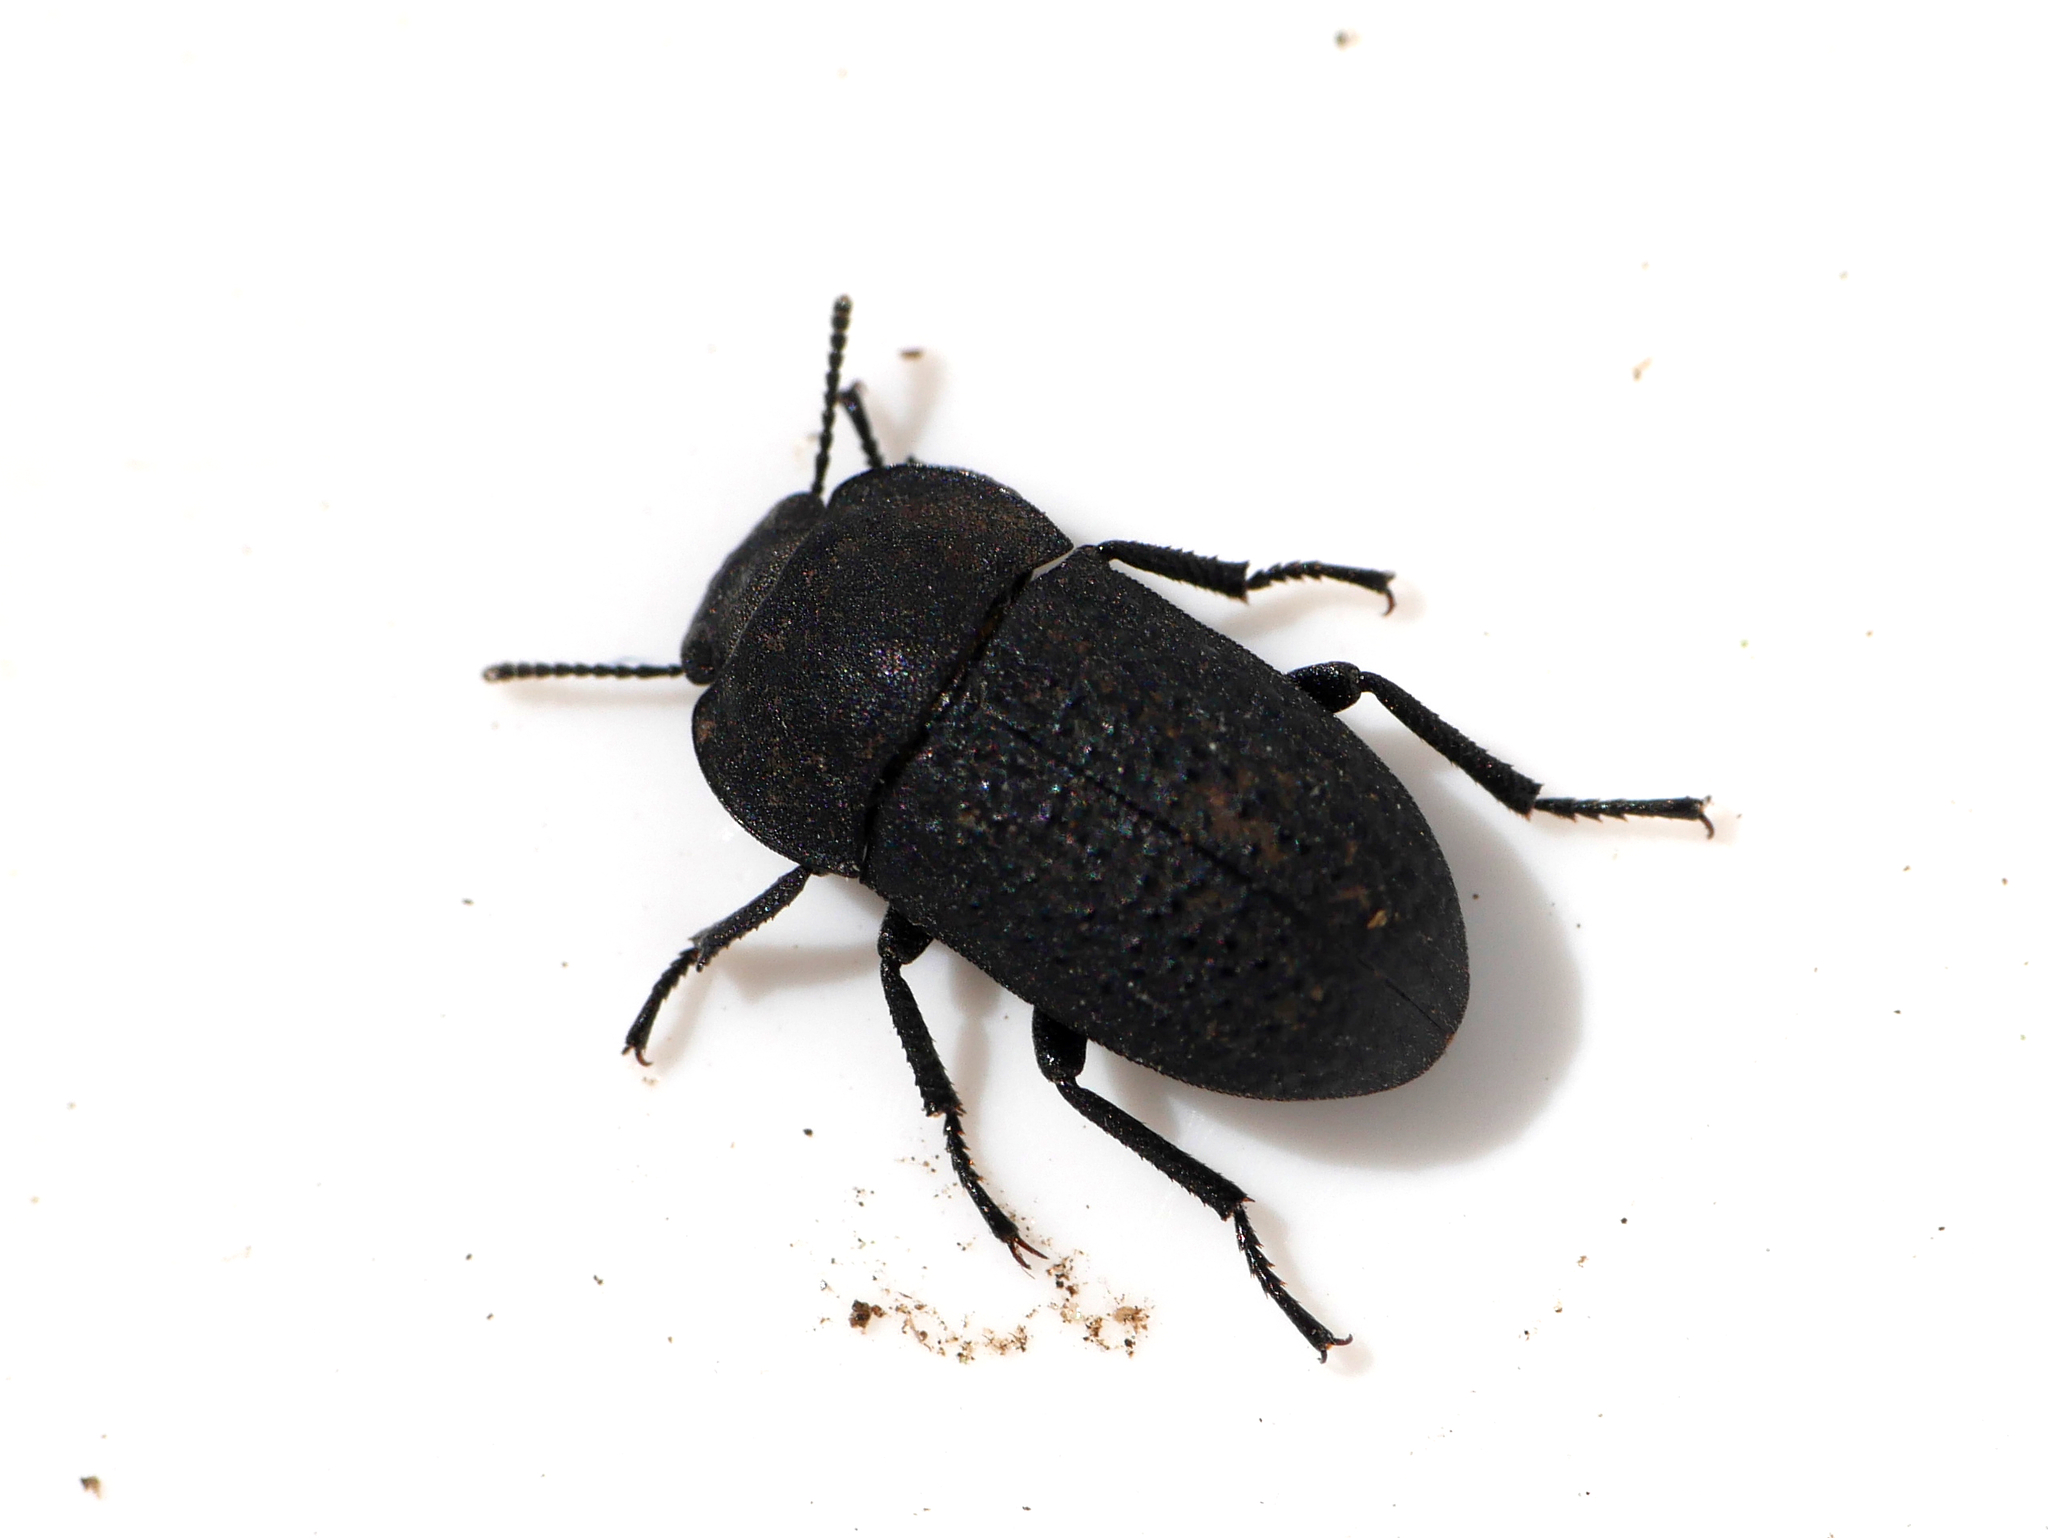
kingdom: Animalia
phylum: Arthropoda
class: Insecta
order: Coleoptera
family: Tenebrionidae
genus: Opatrum
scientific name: Opatrum sabulosum
